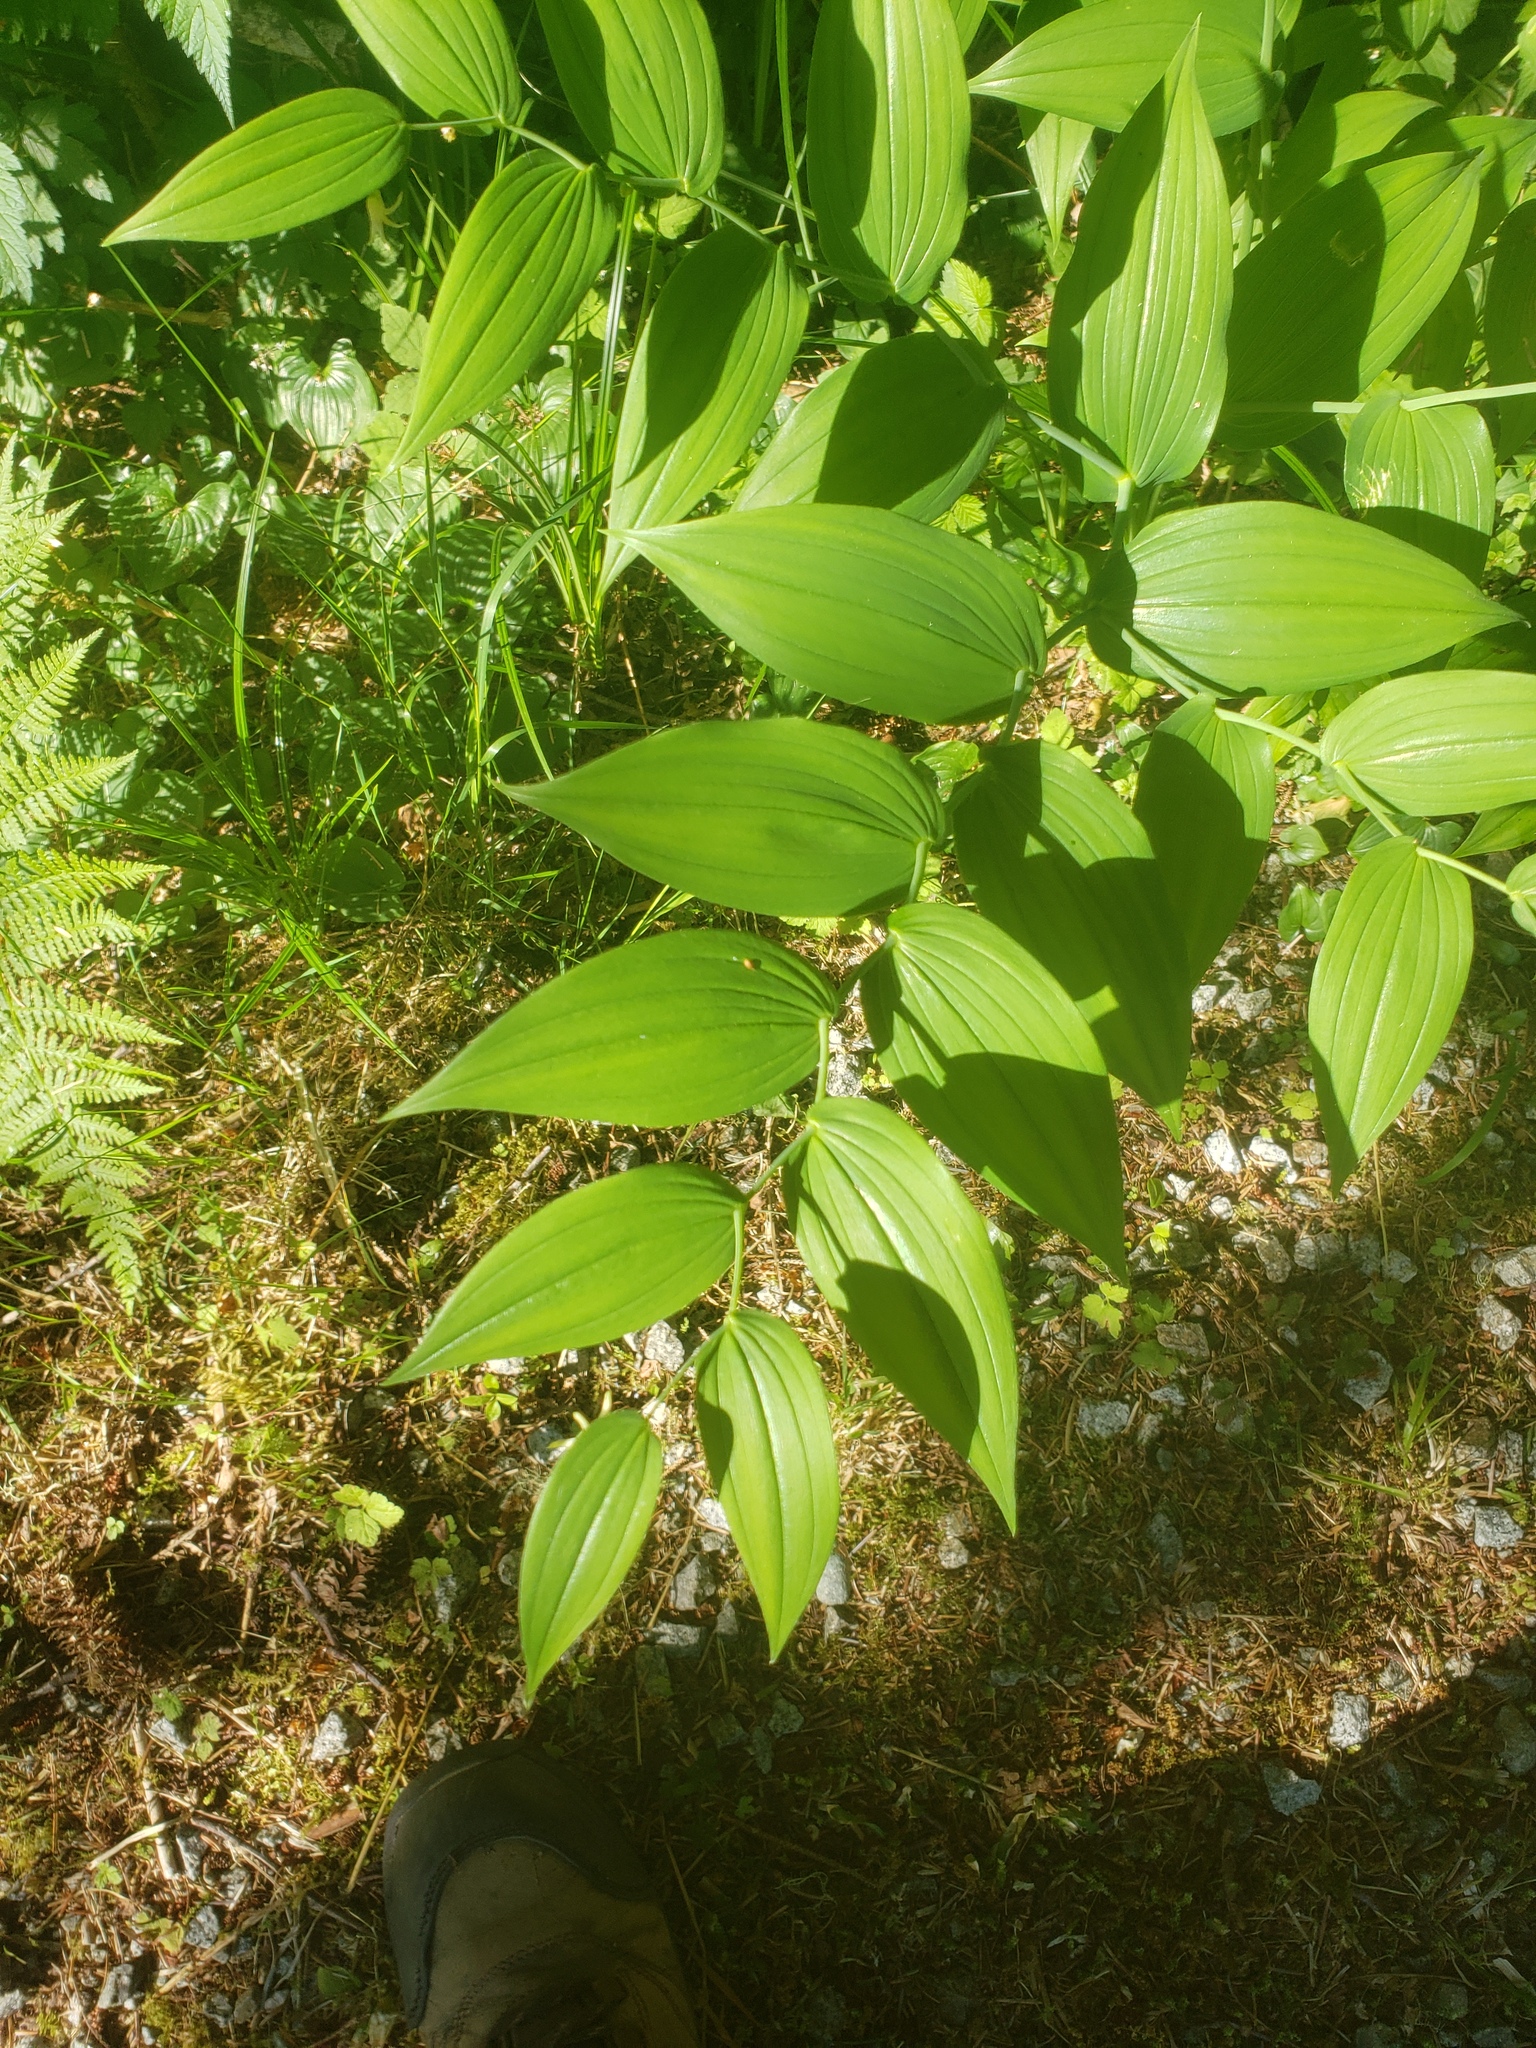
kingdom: Plantae
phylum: Tracheophyta
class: Liliopsida
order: Liliales
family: Liliaceae
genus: Streptopus
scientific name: Streptopus amplexifolius
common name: Clasp twisted stalk
